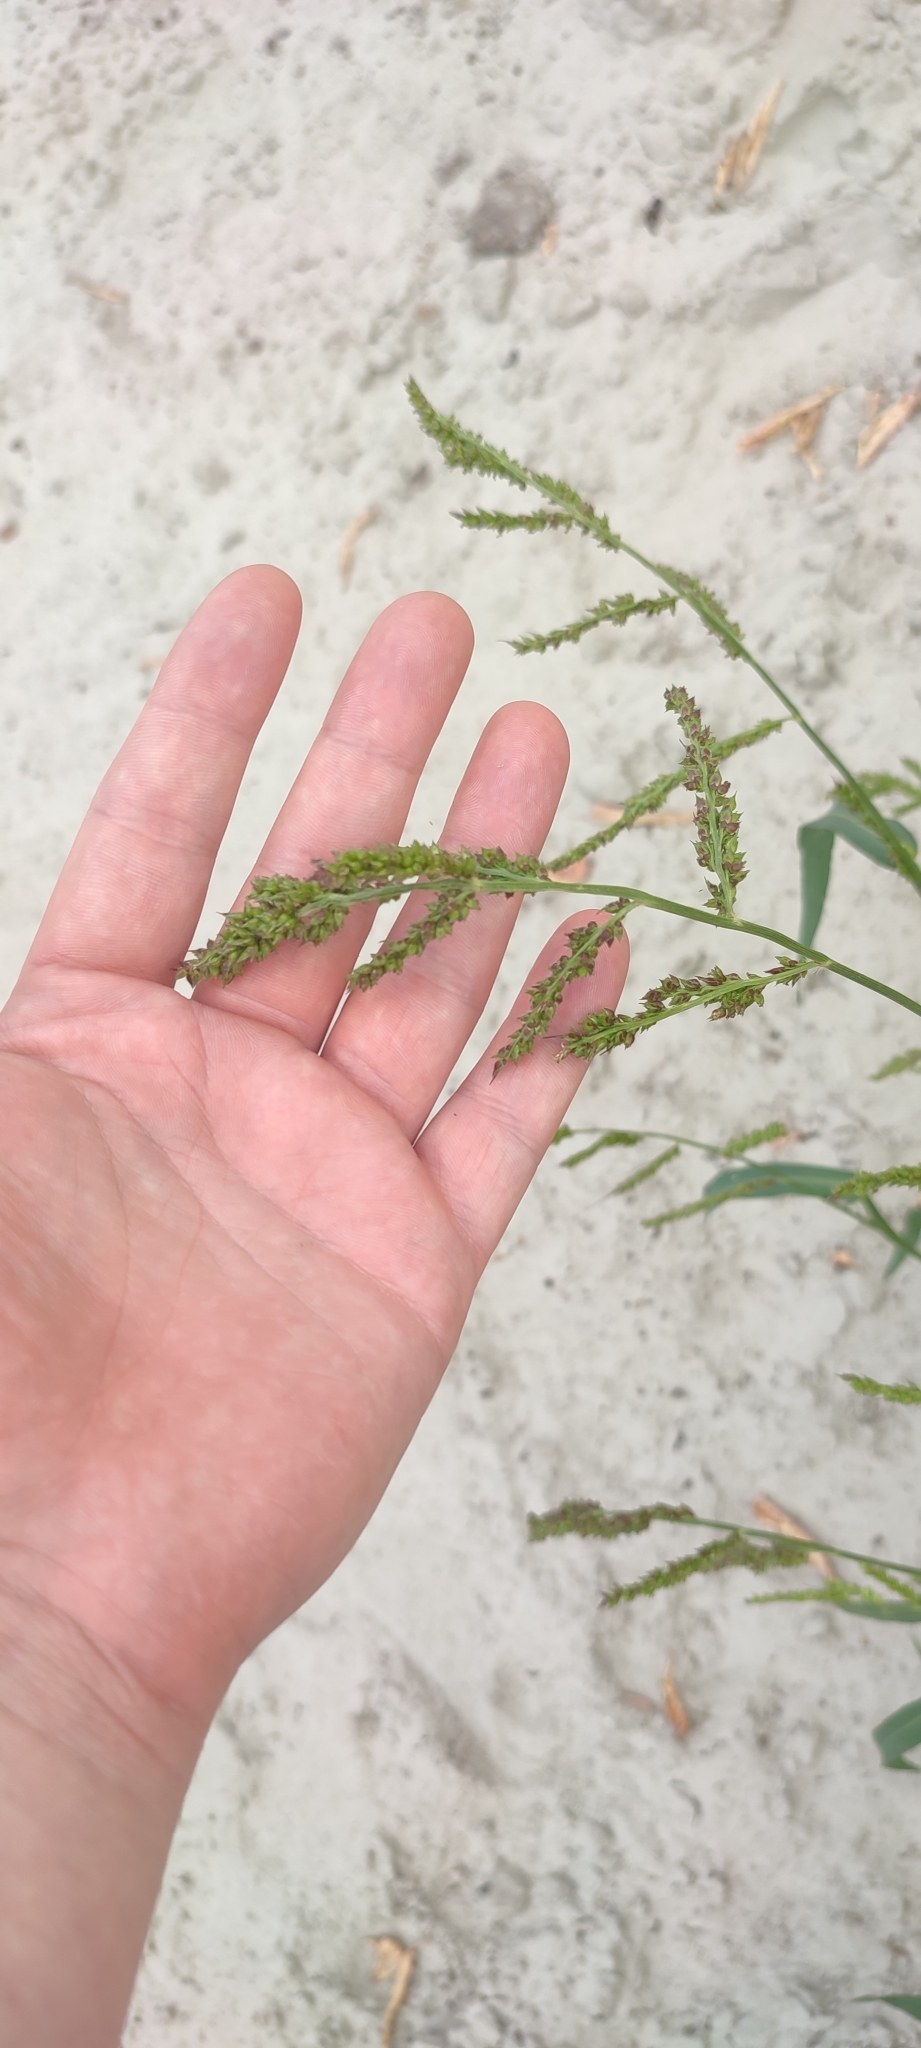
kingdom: Plantae
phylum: Tracheophyta
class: Liliopsida
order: Poales
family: Poaceae
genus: Echinochloa
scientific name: Echinochloa crus-galli
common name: Cockspur
